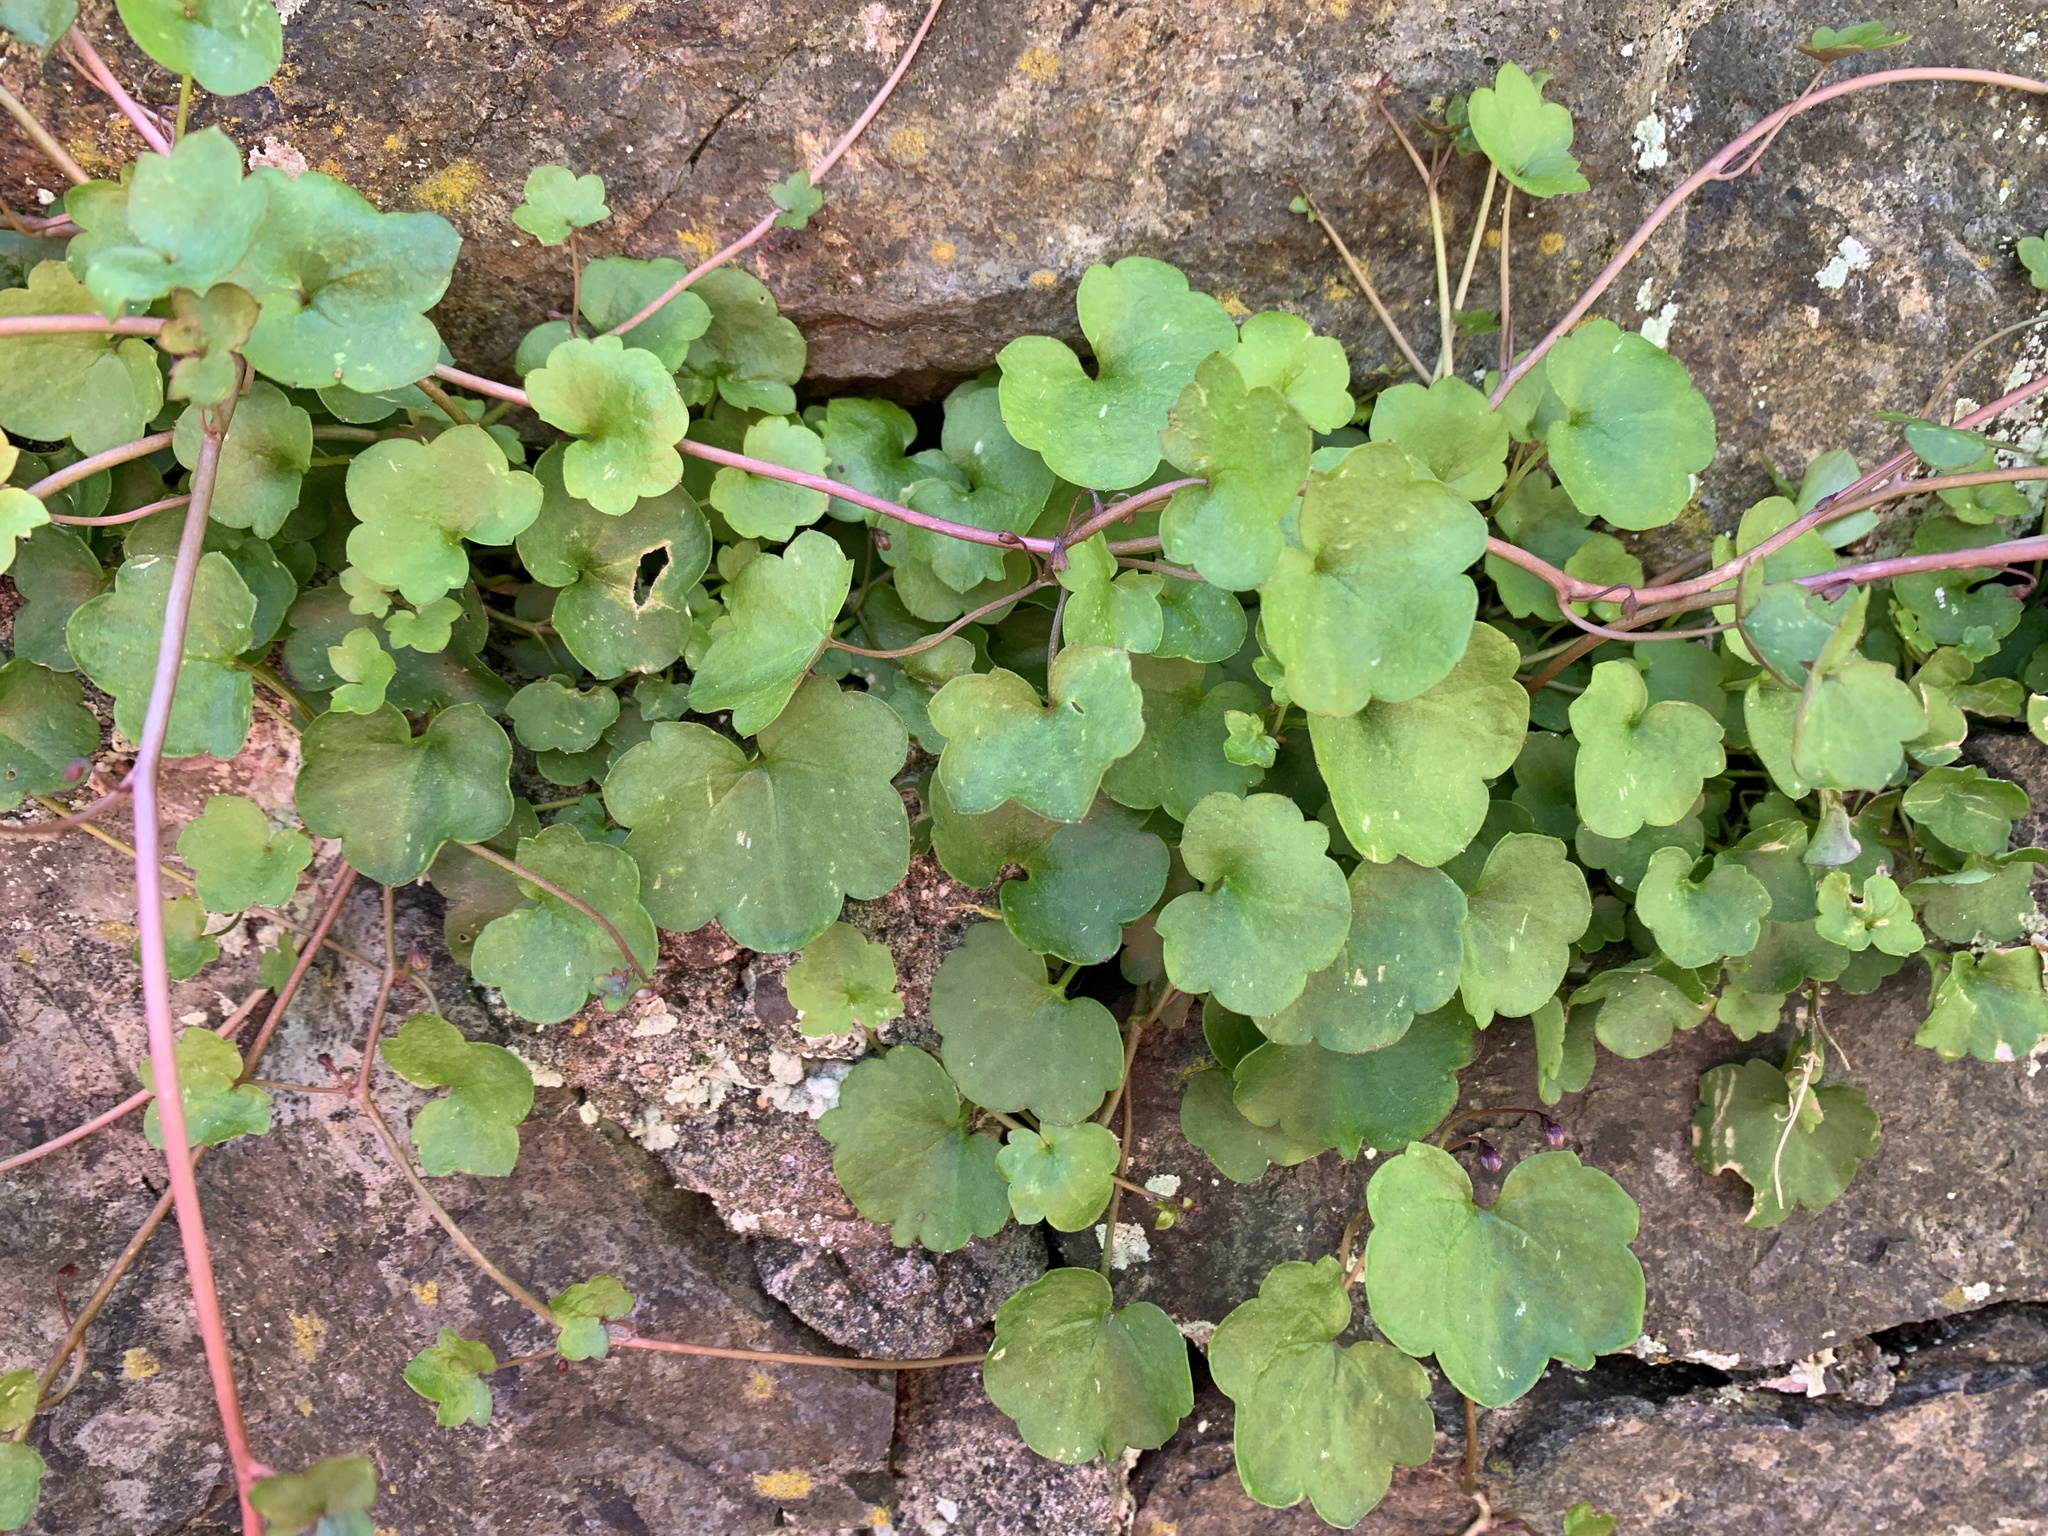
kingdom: Plantae
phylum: Tracheophyta
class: Magnoliopsida
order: Lamiales
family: Plantaginaceae
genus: Cymbalaria
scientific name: Cymbalaria muralis
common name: Ivy-leaved toadflax
